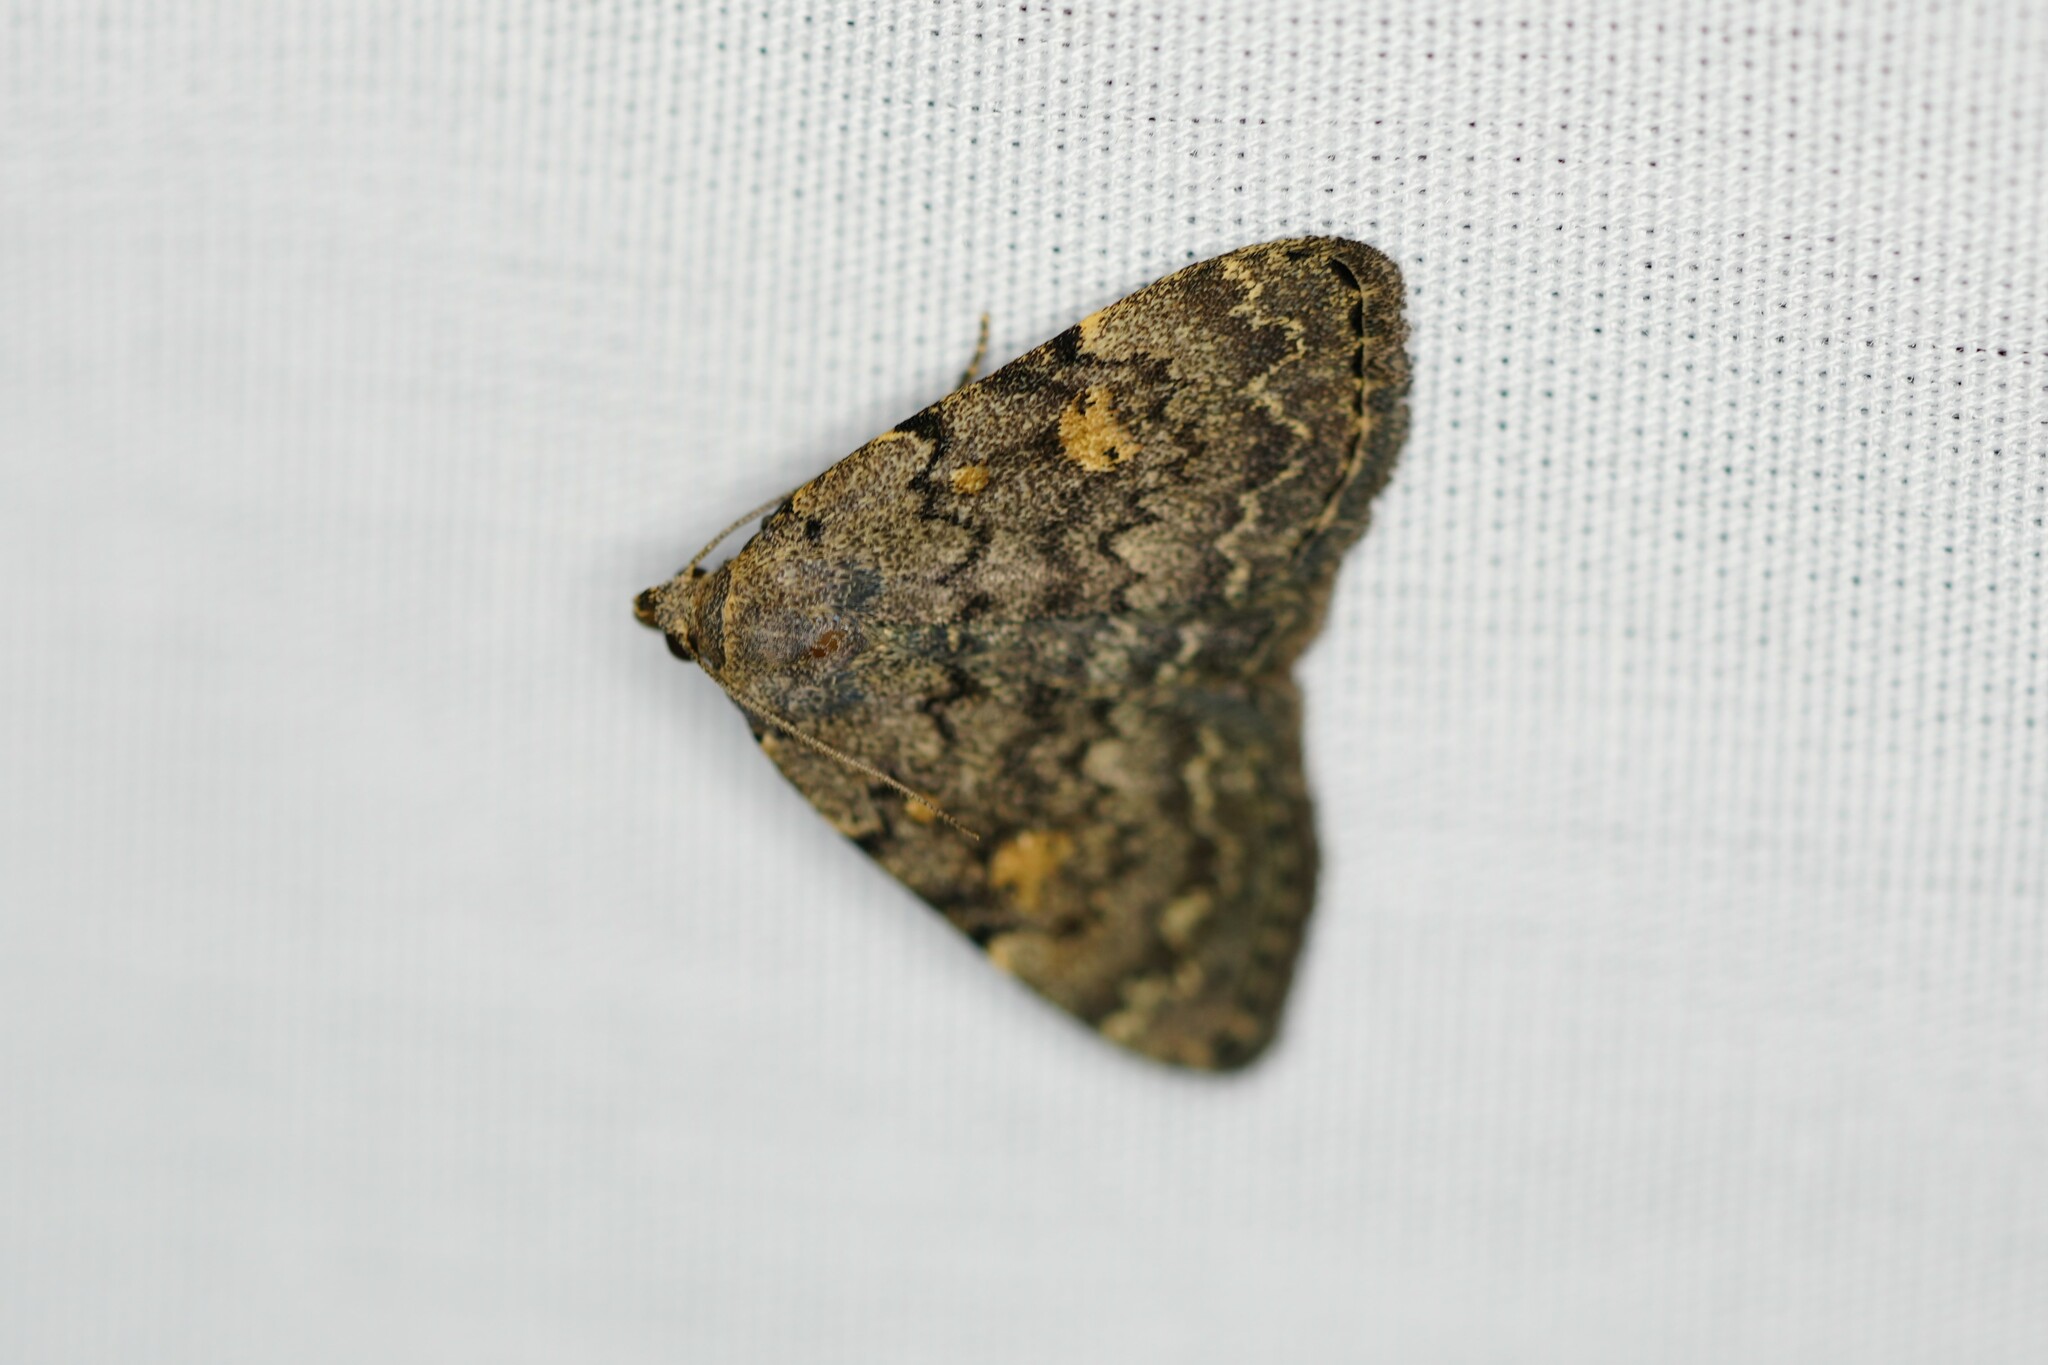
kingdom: Animalia
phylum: Arthropoda
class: Insecta
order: Lepidoptera
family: Erebidae
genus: Idia
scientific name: Idia aemula
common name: Common idia moth
